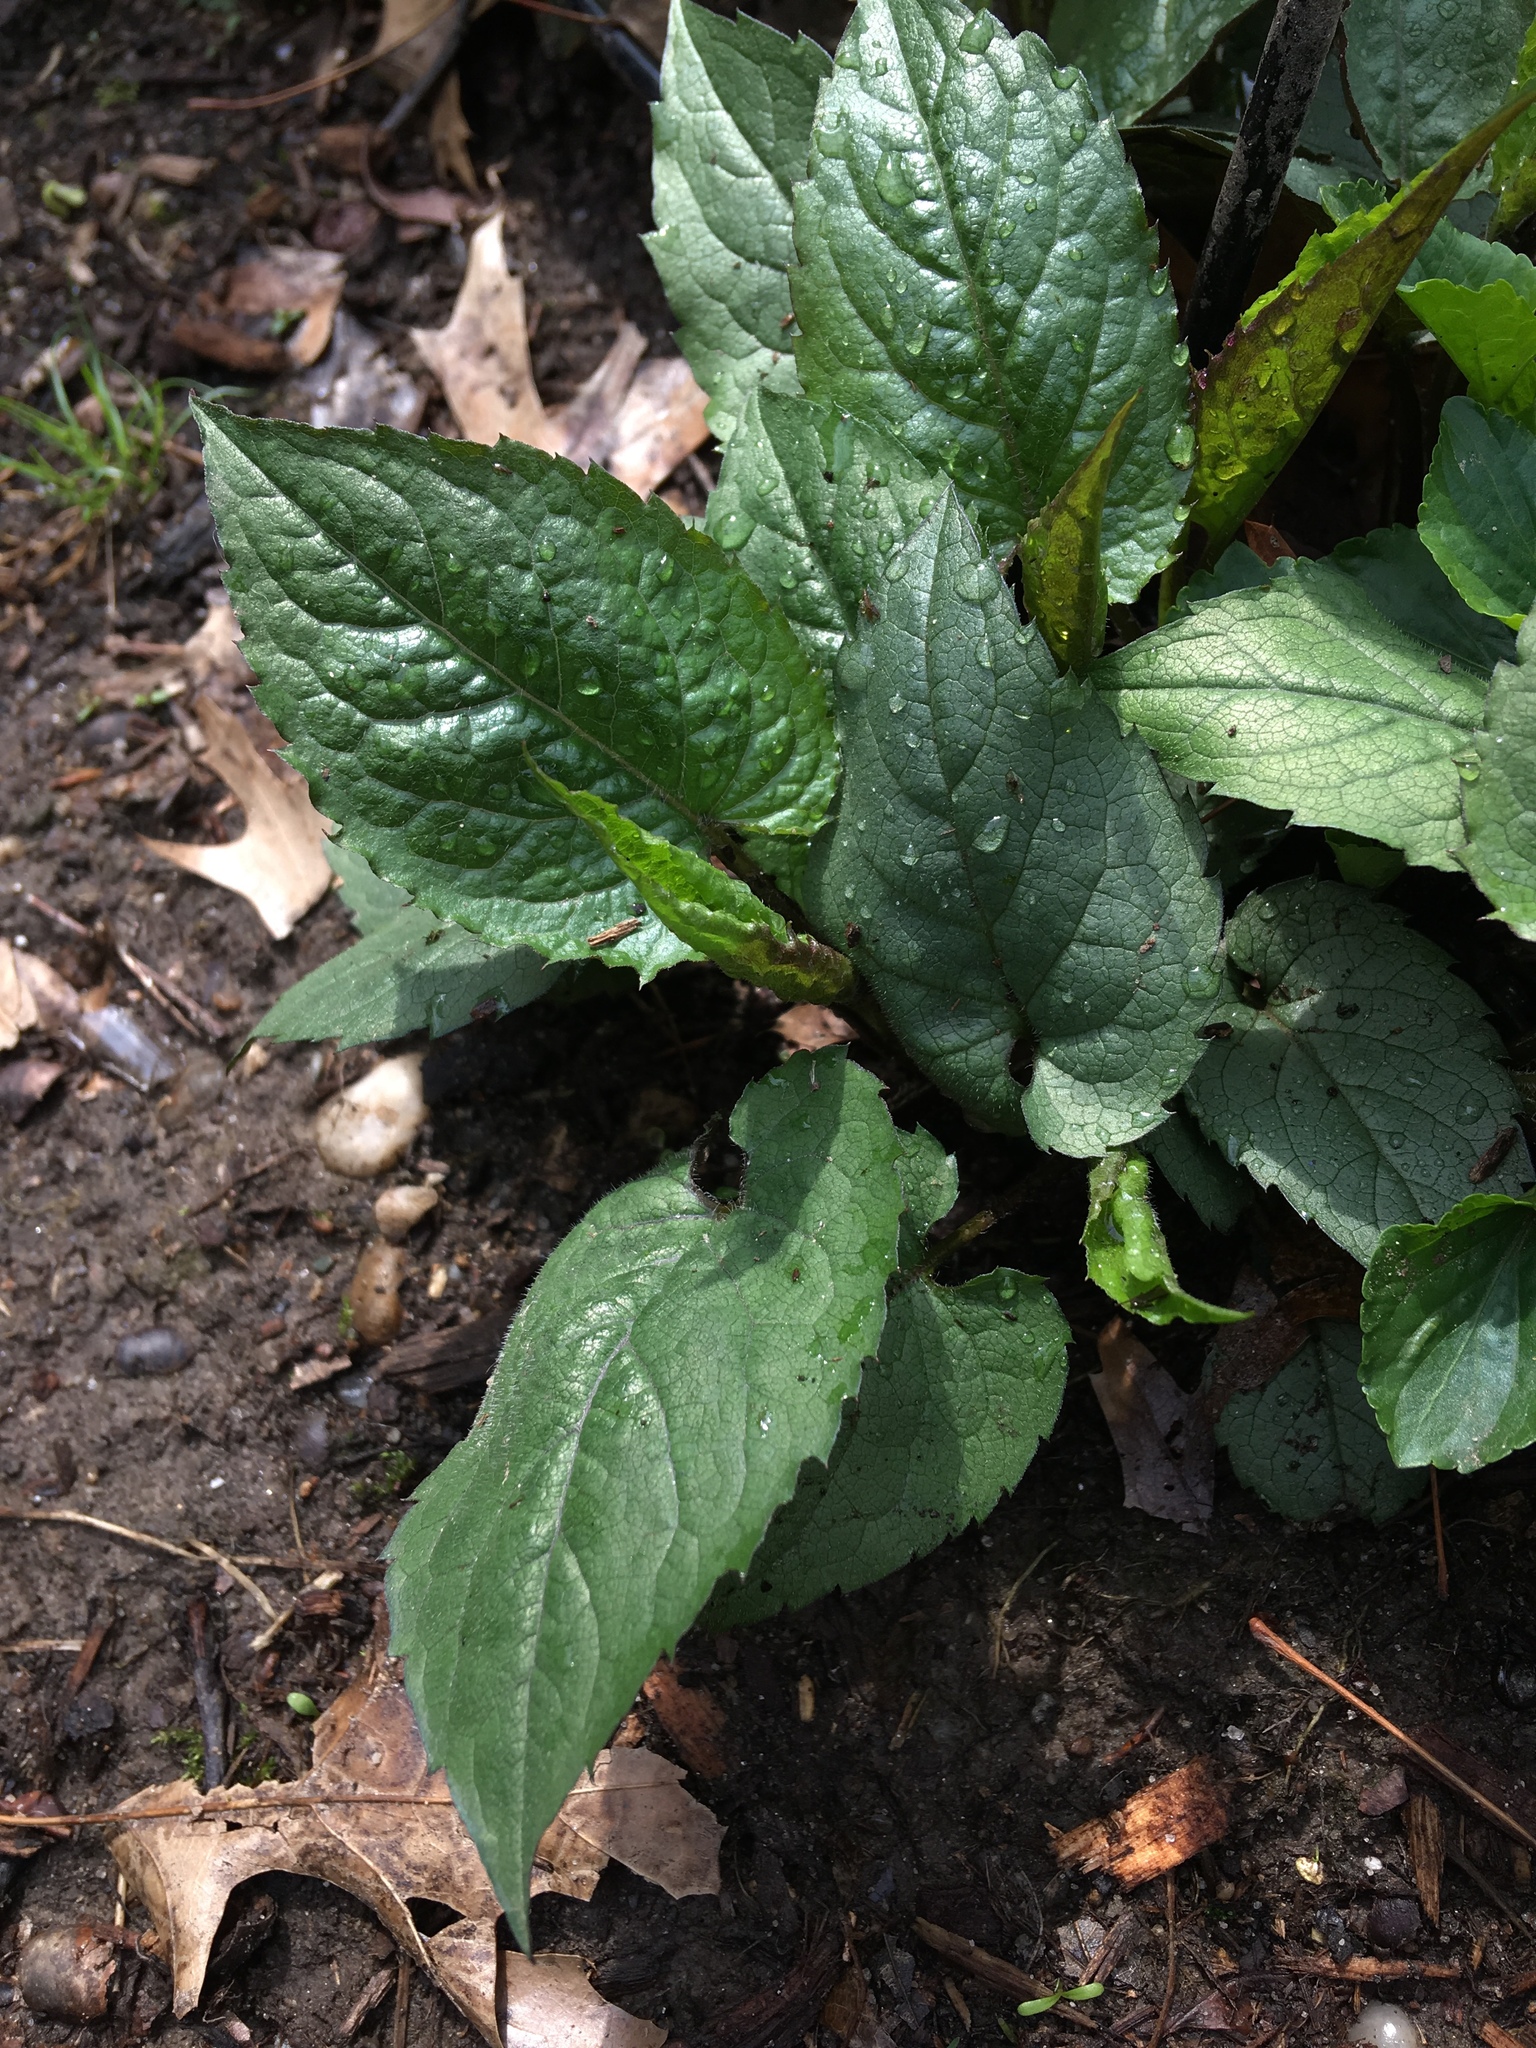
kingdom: Plantae
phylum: Tracheophyta
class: Magnoliopsida
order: Asterales
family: Asteraceae
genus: Eurybia
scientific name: Eurybia divaricata
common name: White wood aster
